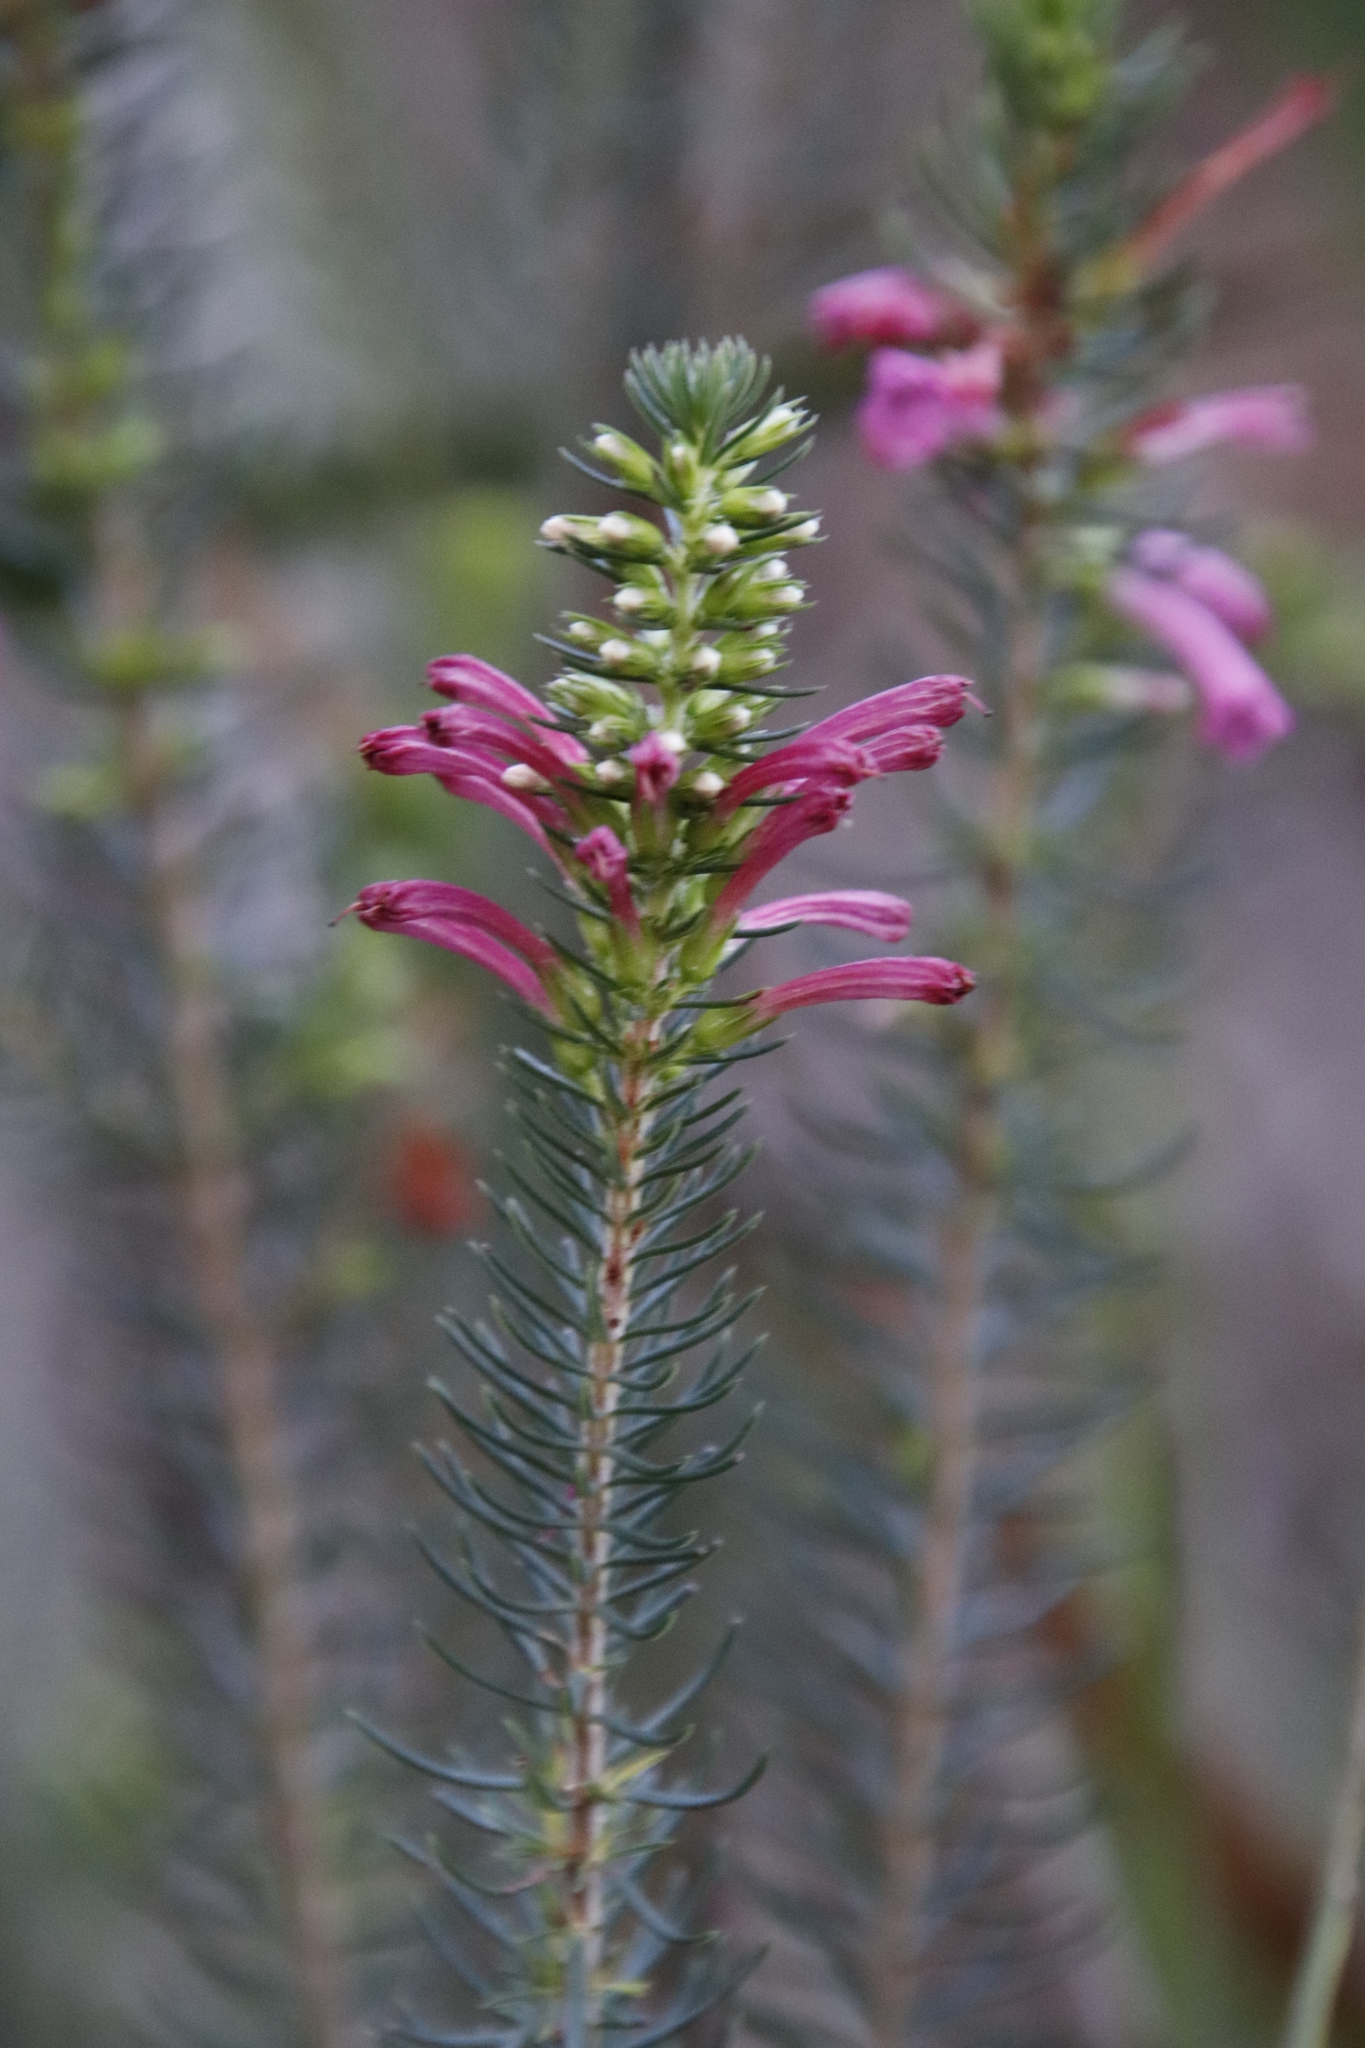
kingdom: Plantae
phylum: Tracheophyta
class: Magnoliopsida
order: Ericales
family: Ericaceae
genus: Erica
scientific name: Erica abietina
